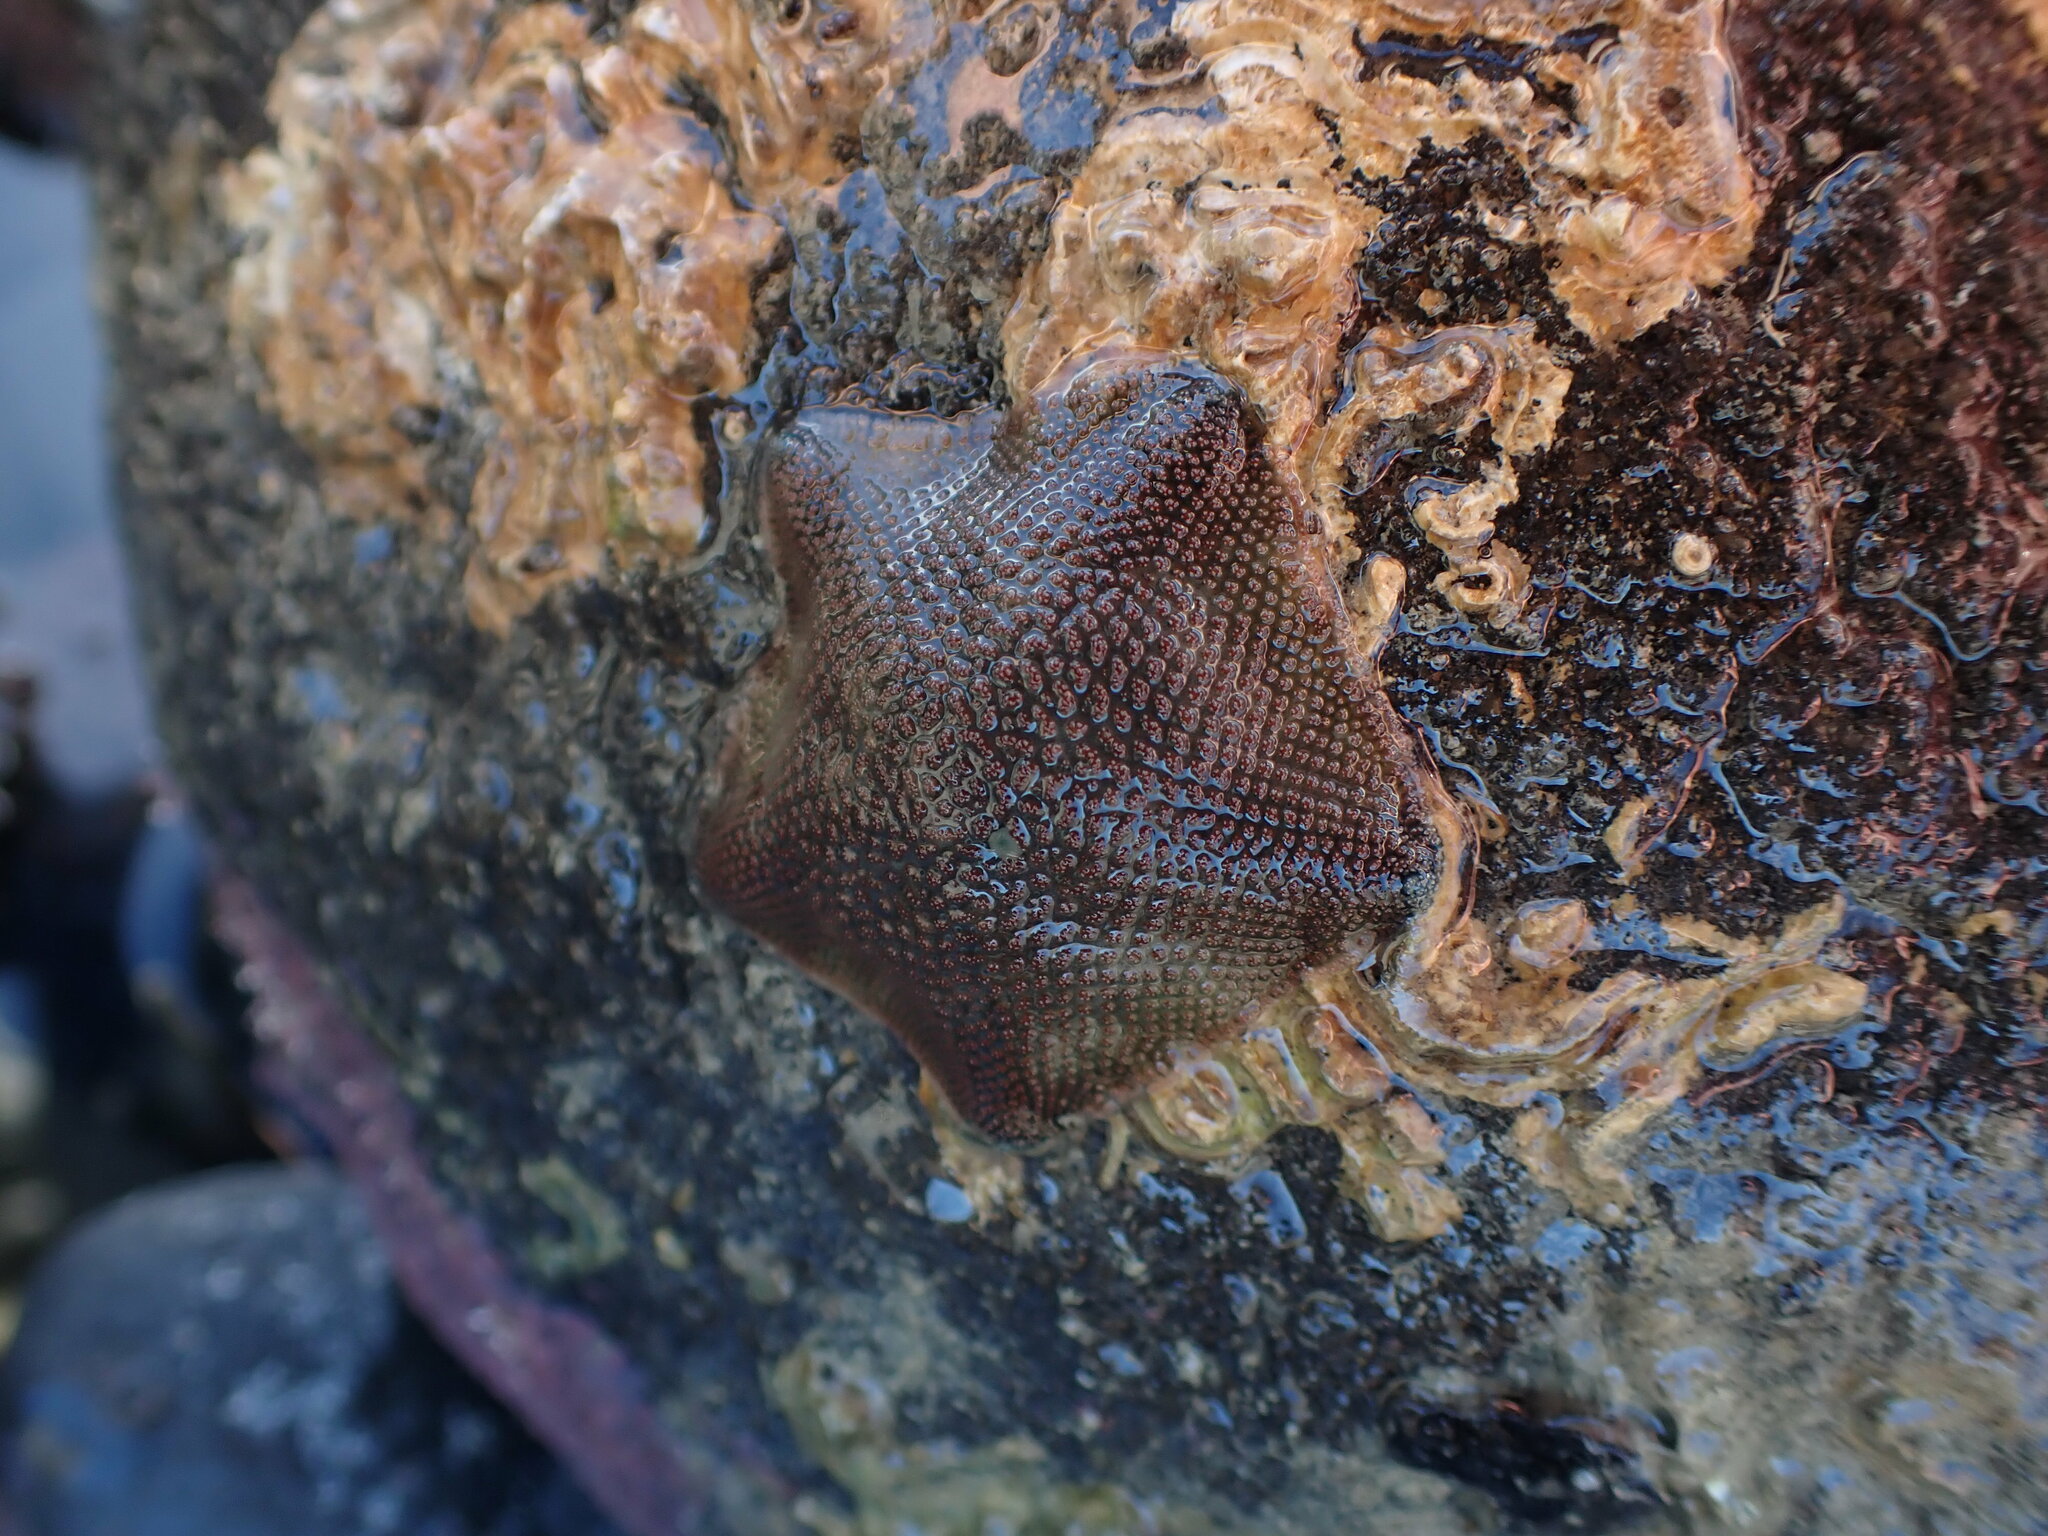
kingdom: Animalia
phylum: Echinodermata
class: Asteroidea
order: Valvatida
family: Asterinidae
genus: Patiriella
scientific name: Patiriella regularis
